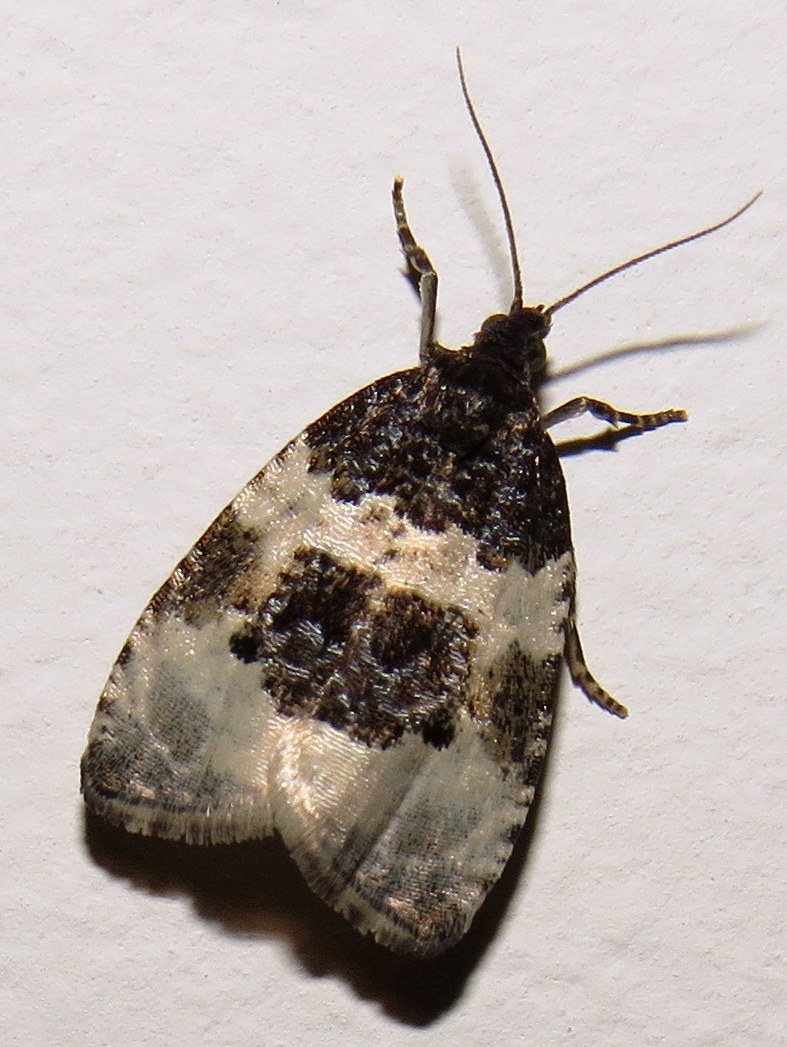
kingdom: Animalia
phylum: Arthropoda
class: Insecta
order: Lepidoptera
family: Tortricidae
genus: Olethreutes
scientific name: Olethreutes bipartitana
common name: Divided olethreutes moth
